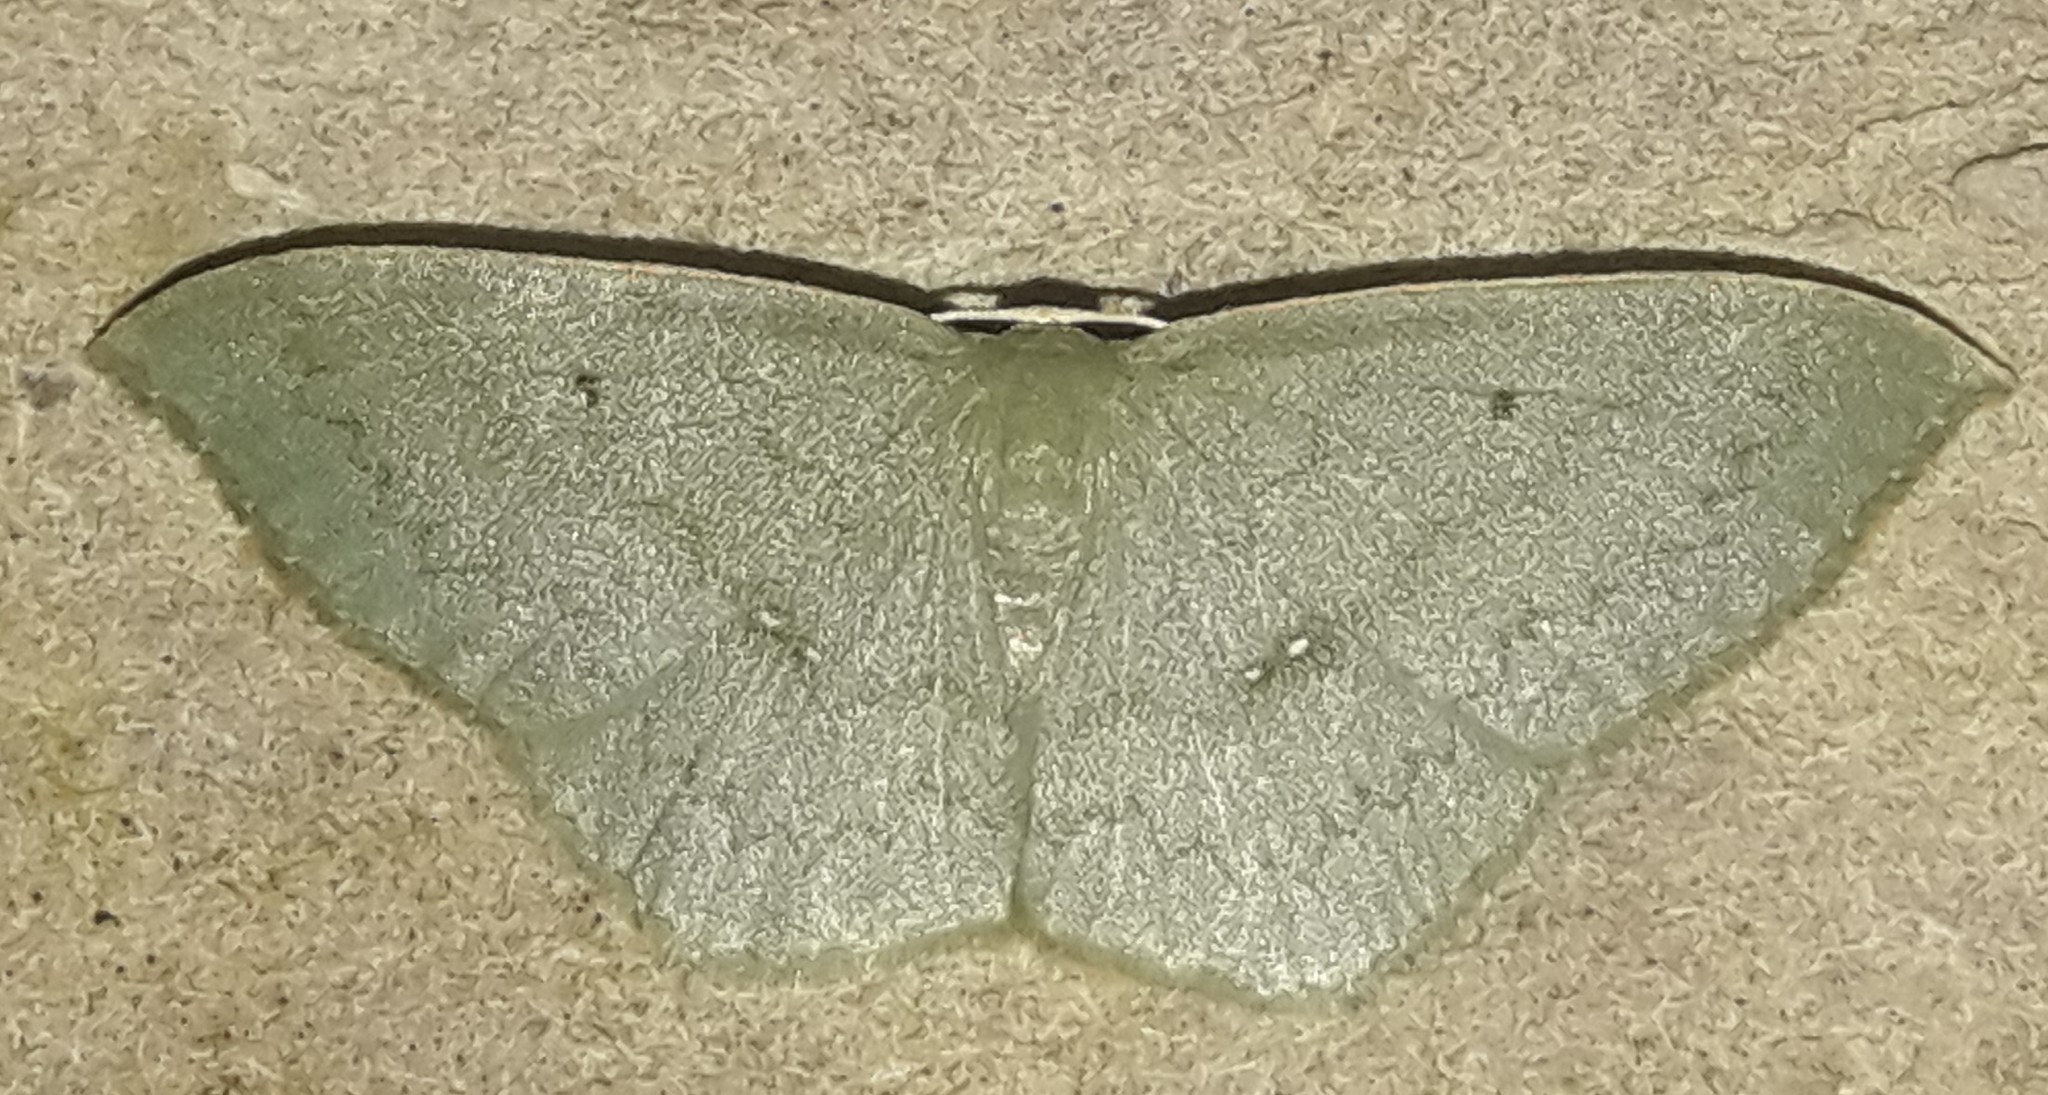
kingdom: Animalia
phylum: Arthropoda
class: Insecta
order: Lepidoptera
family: Geometridae
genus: Dithecodes
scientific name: Dithecodes distracta
